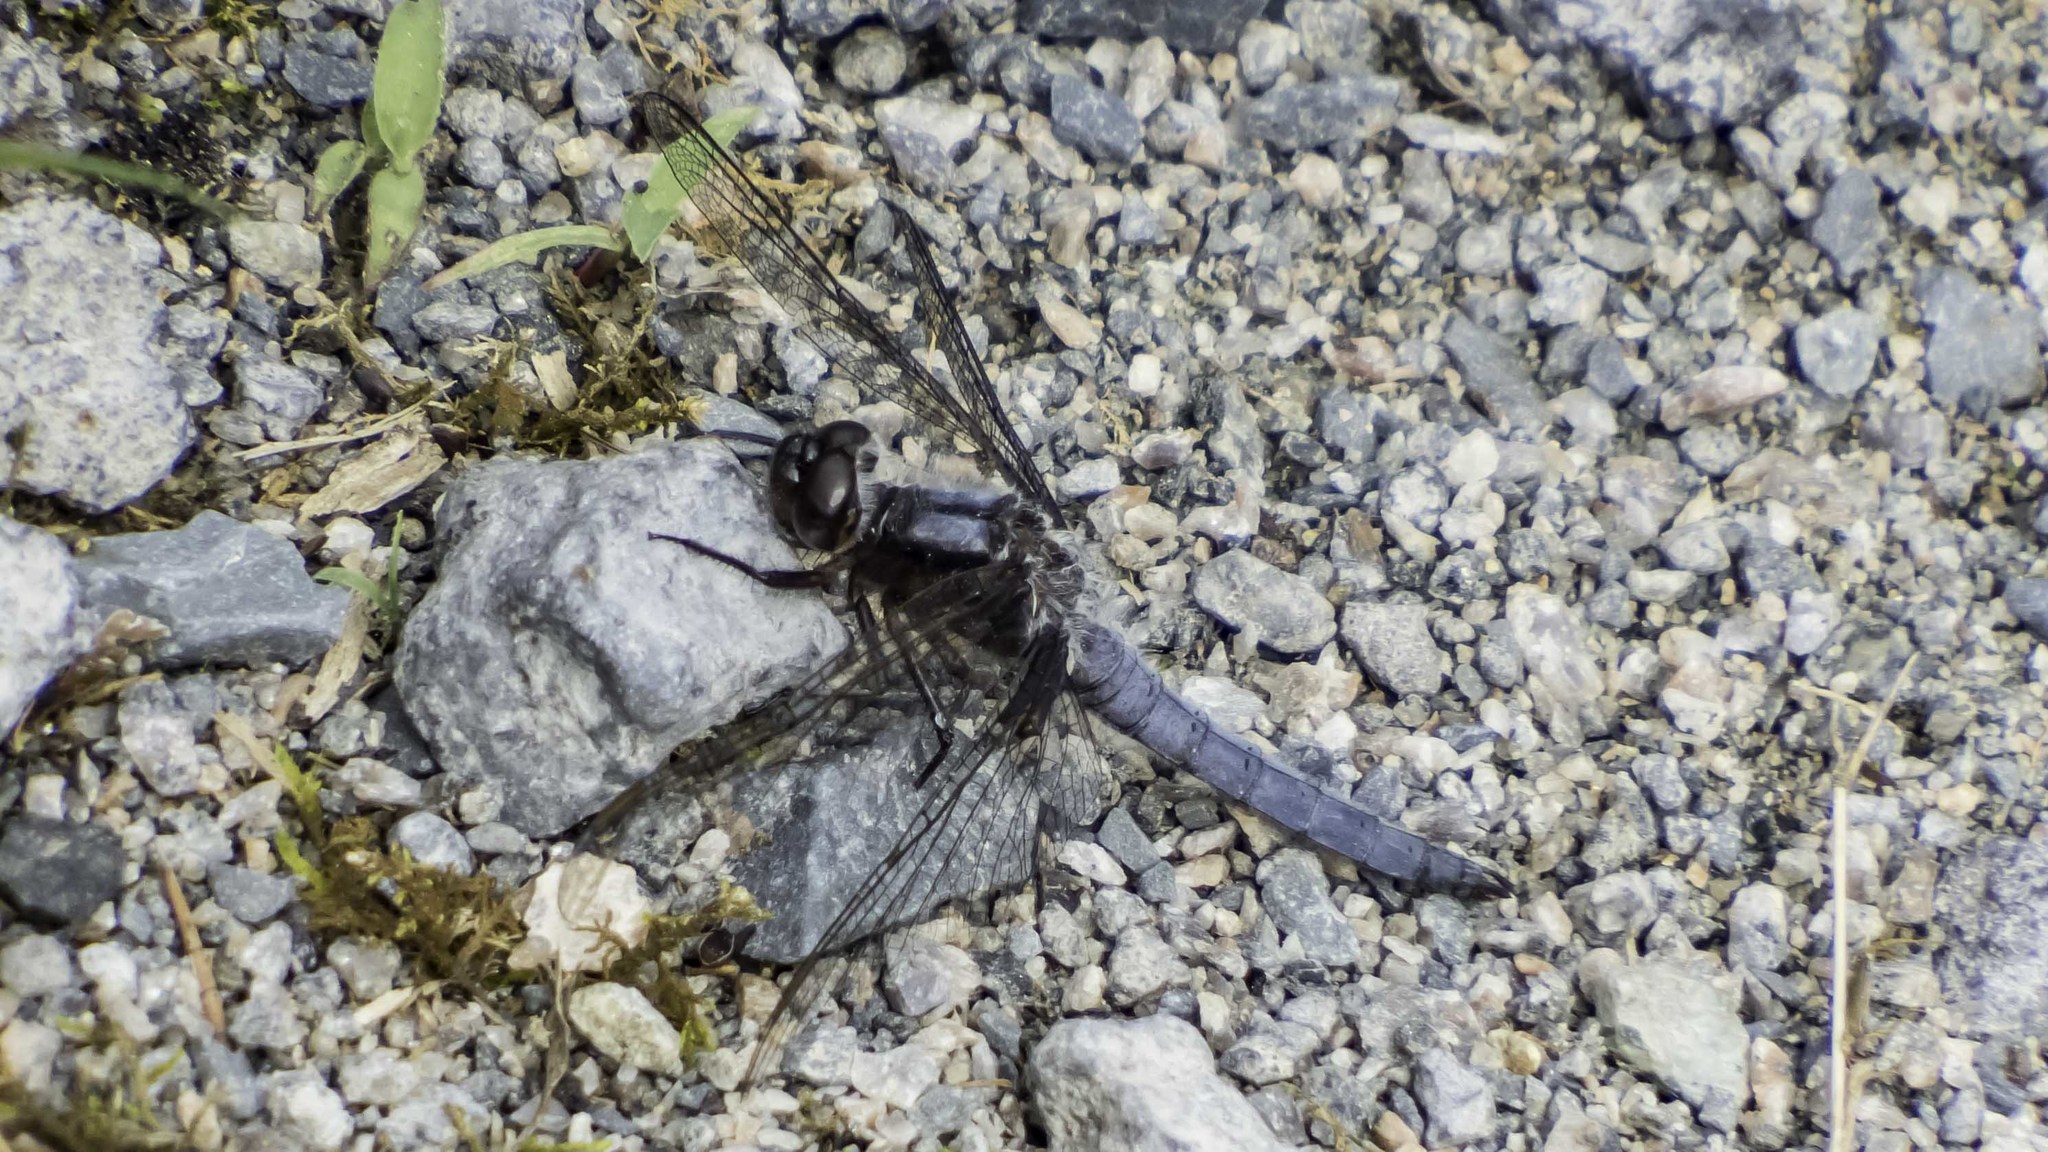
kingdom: Animalia
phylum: Arthropoda
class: Insecta
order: Odonata
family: Libellulidae
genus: Ladona
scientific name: Ladona deplanata
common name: Blue corporal
